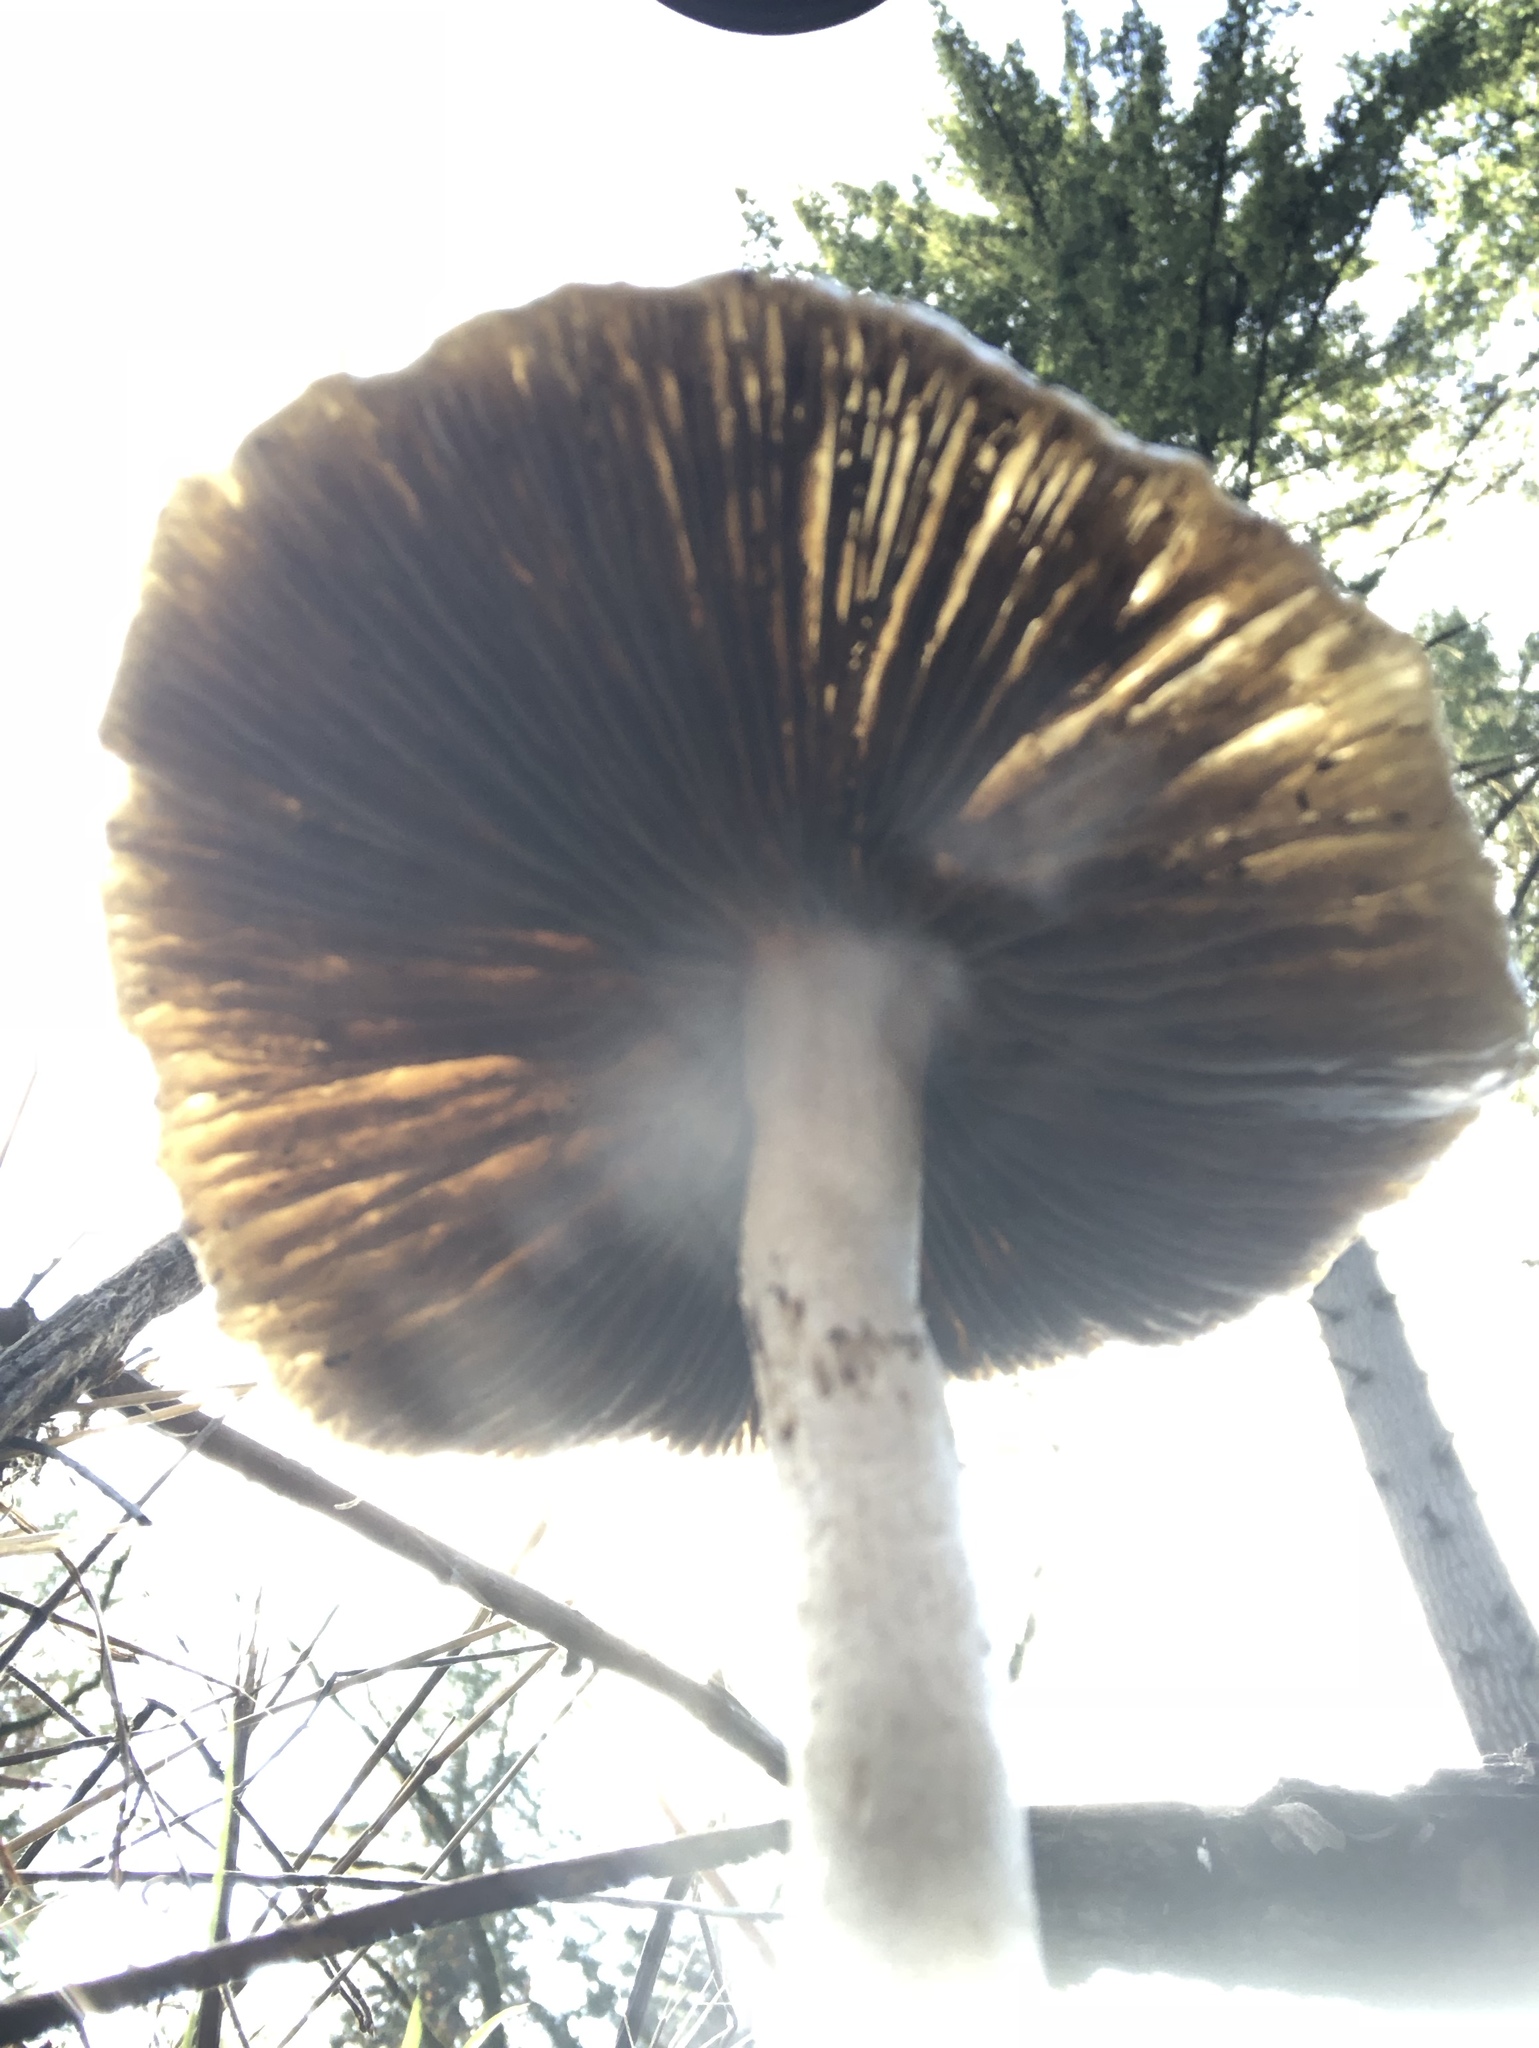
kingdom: Fungi
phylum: Basidiomycota
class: Agaricomycetes
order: Agaricales
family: Strophariaceae
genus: Stropharia
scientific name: Stropharia ambigua
